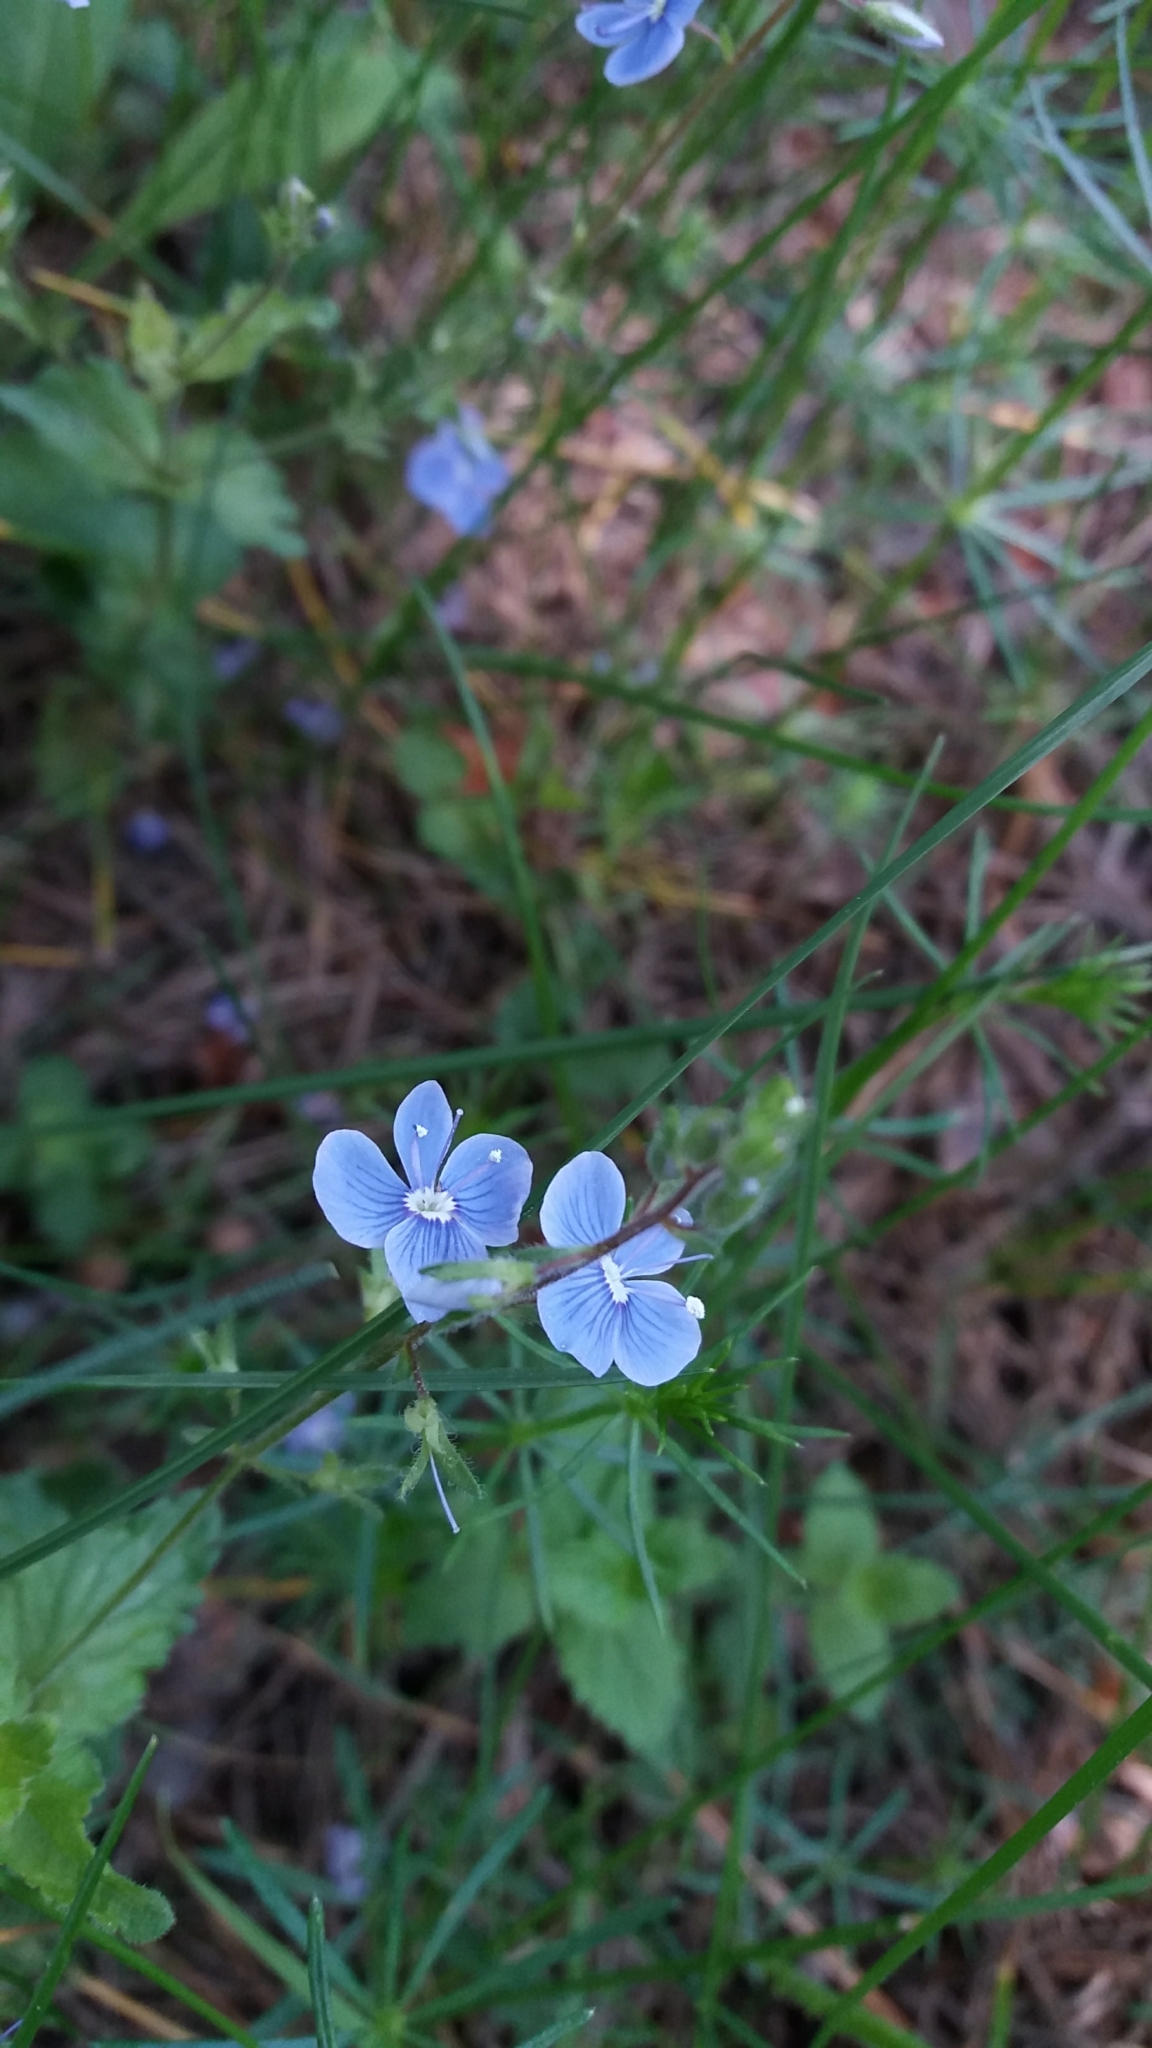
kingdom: Plantae
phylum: Tracheophyta
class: Magnoliopsida
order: Lamiales
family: Plantaginaceae
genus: Veronica
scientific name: Veronica chamaedrys
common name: Germander speedwell
